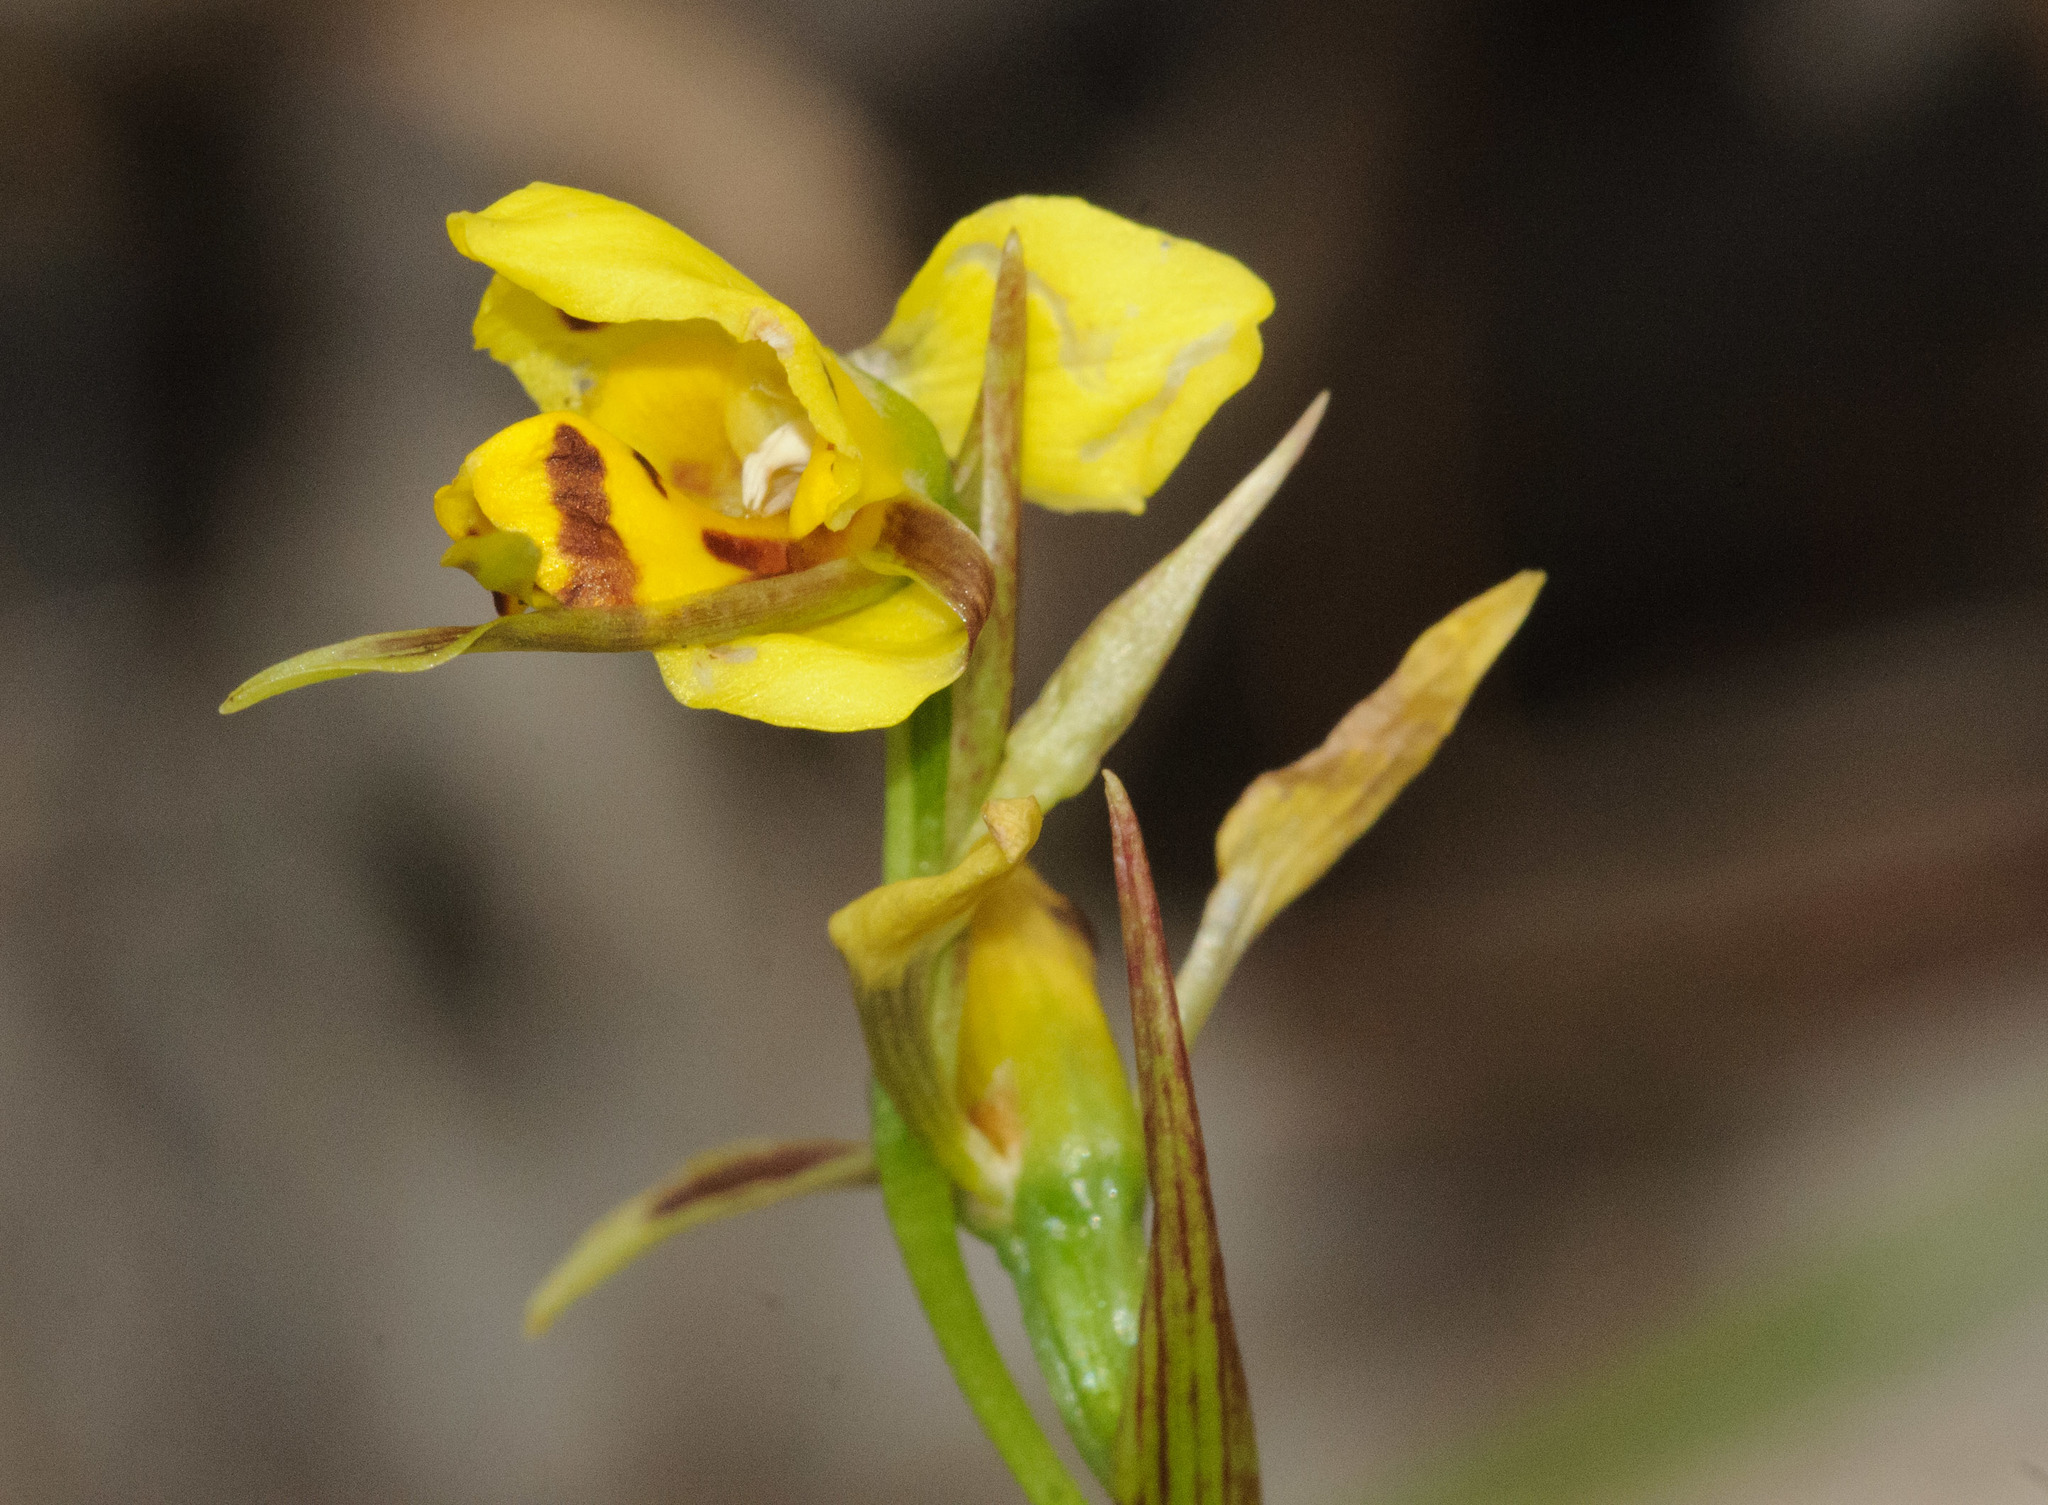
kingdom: Plantae
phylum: Tracheophyta
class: Liliopsida
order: Asparagales
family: Orchidaceae
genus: Diuris
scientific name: Diuris sulphurea
